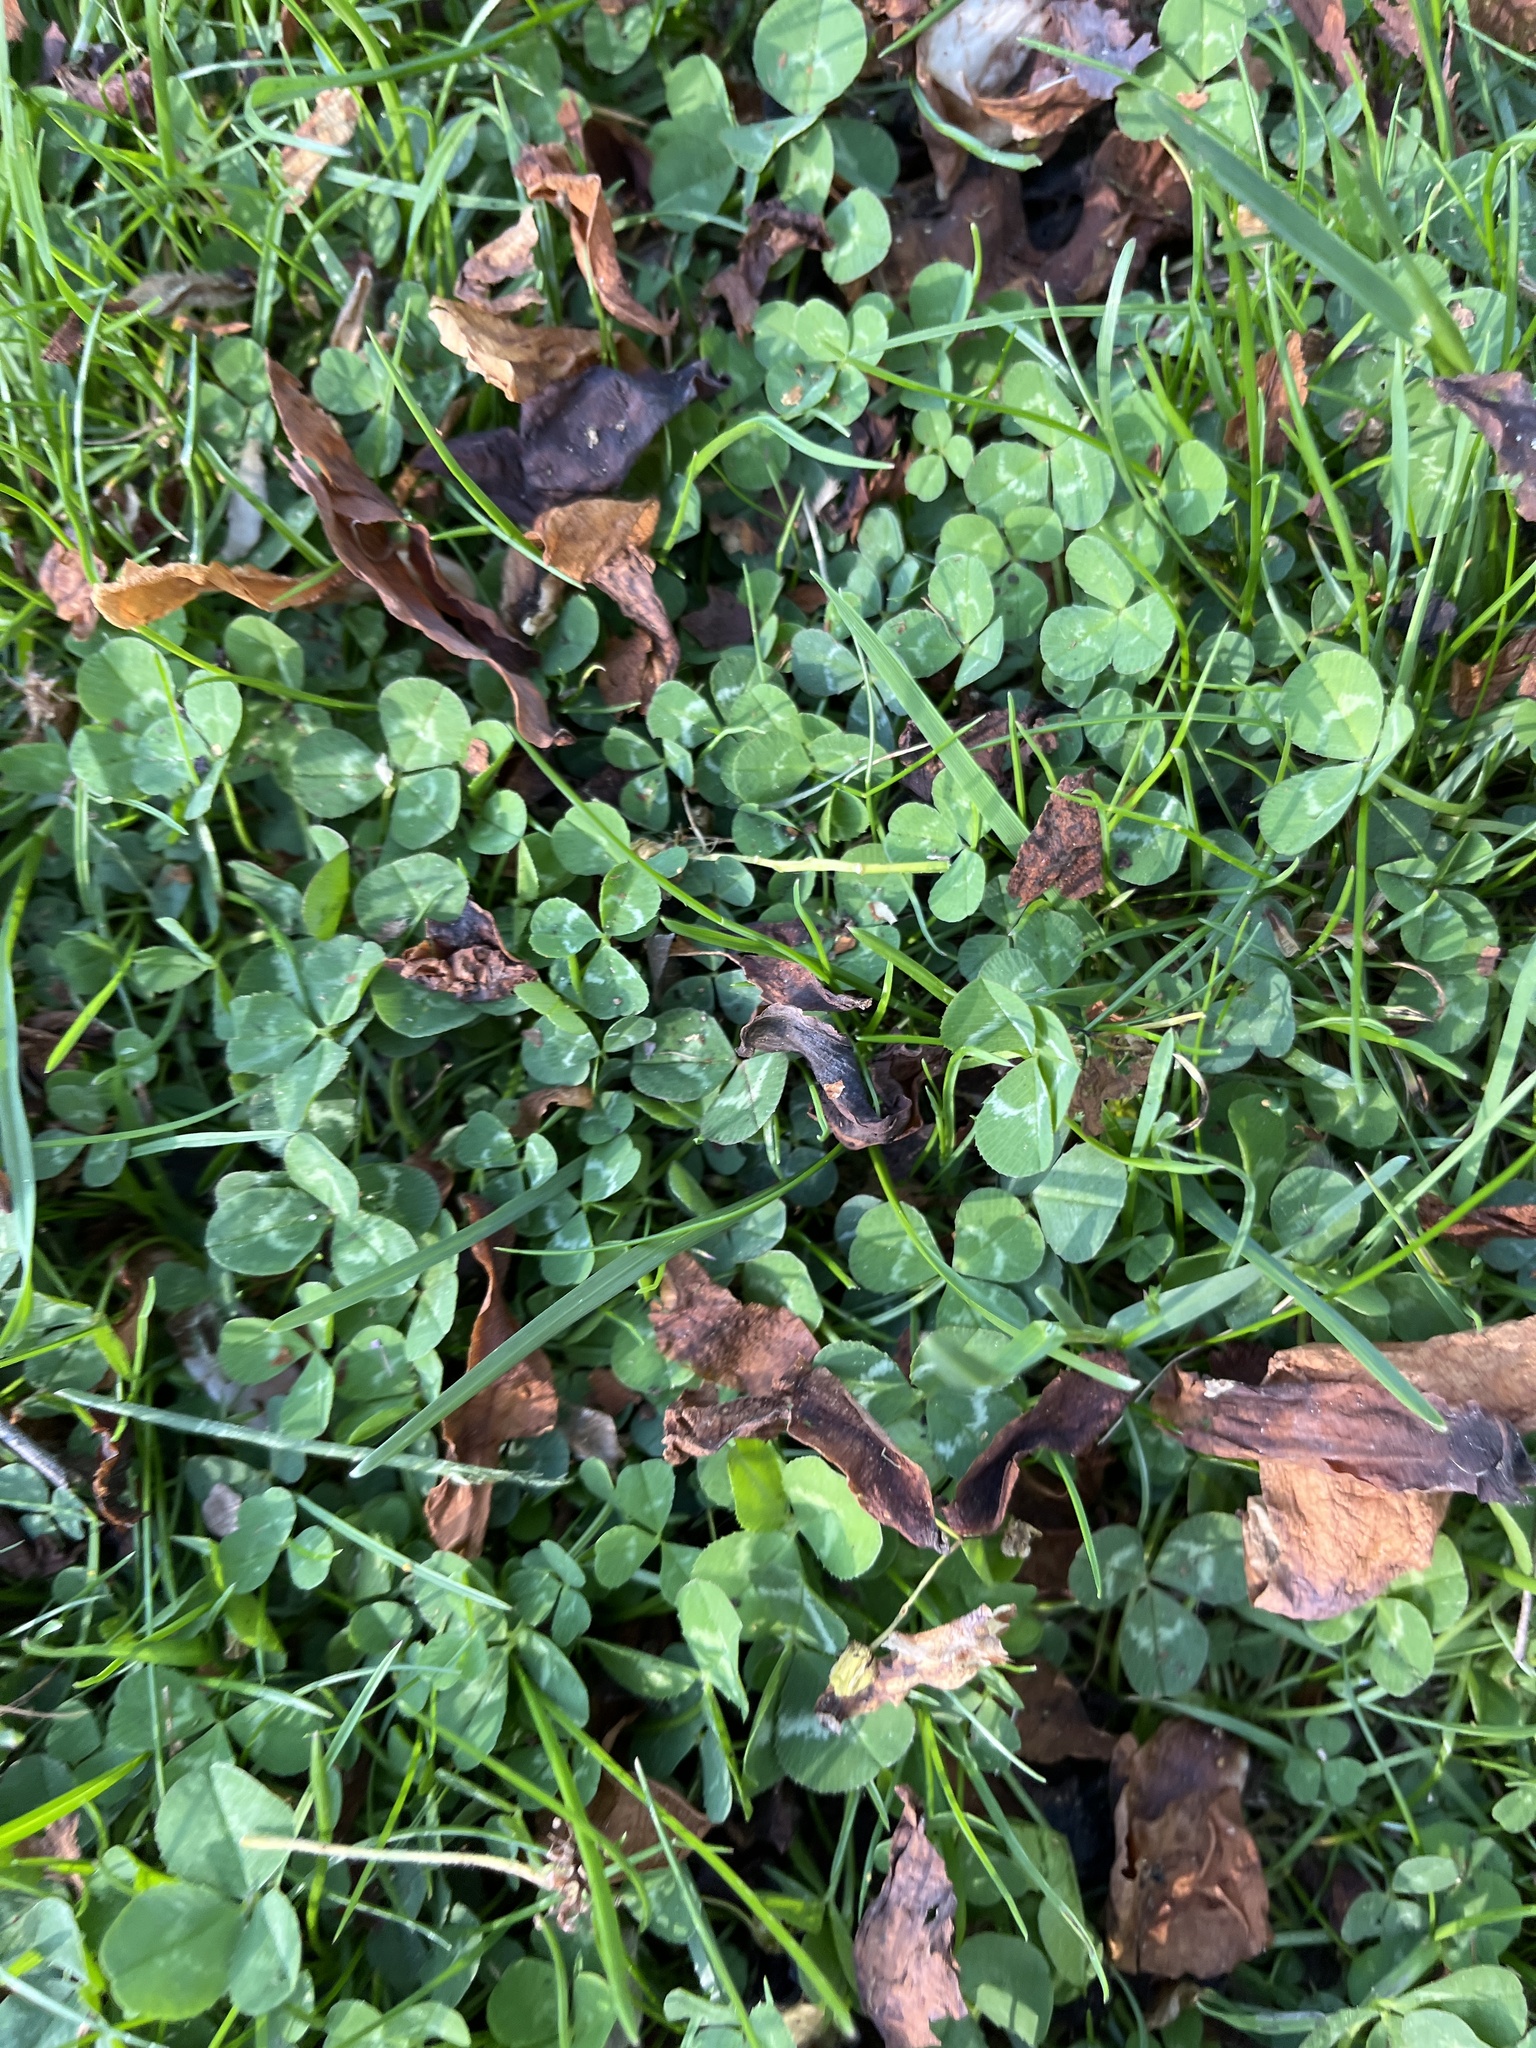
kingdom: Plantae
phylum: Tracheophyta
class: Magnoliopsida
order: Fabales
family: Fabaceae
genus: Trifolium
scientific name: Trifolium repens
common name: White clover
